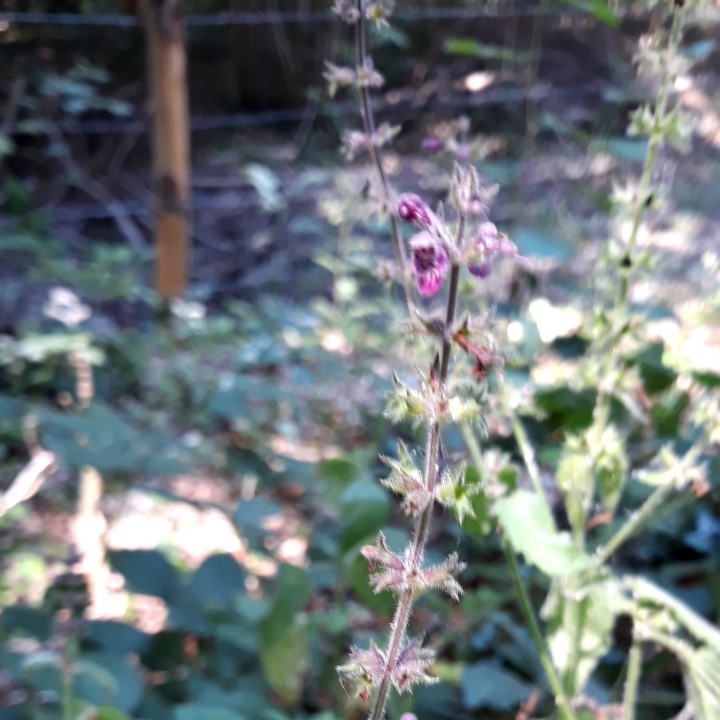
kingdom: Plantae
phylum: Tracheophyta
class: Magnoliopsida
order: Lamiales
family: Lamiaceae
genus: Stachys
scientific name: Stachys sylvatica
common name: Hedge woundwort
